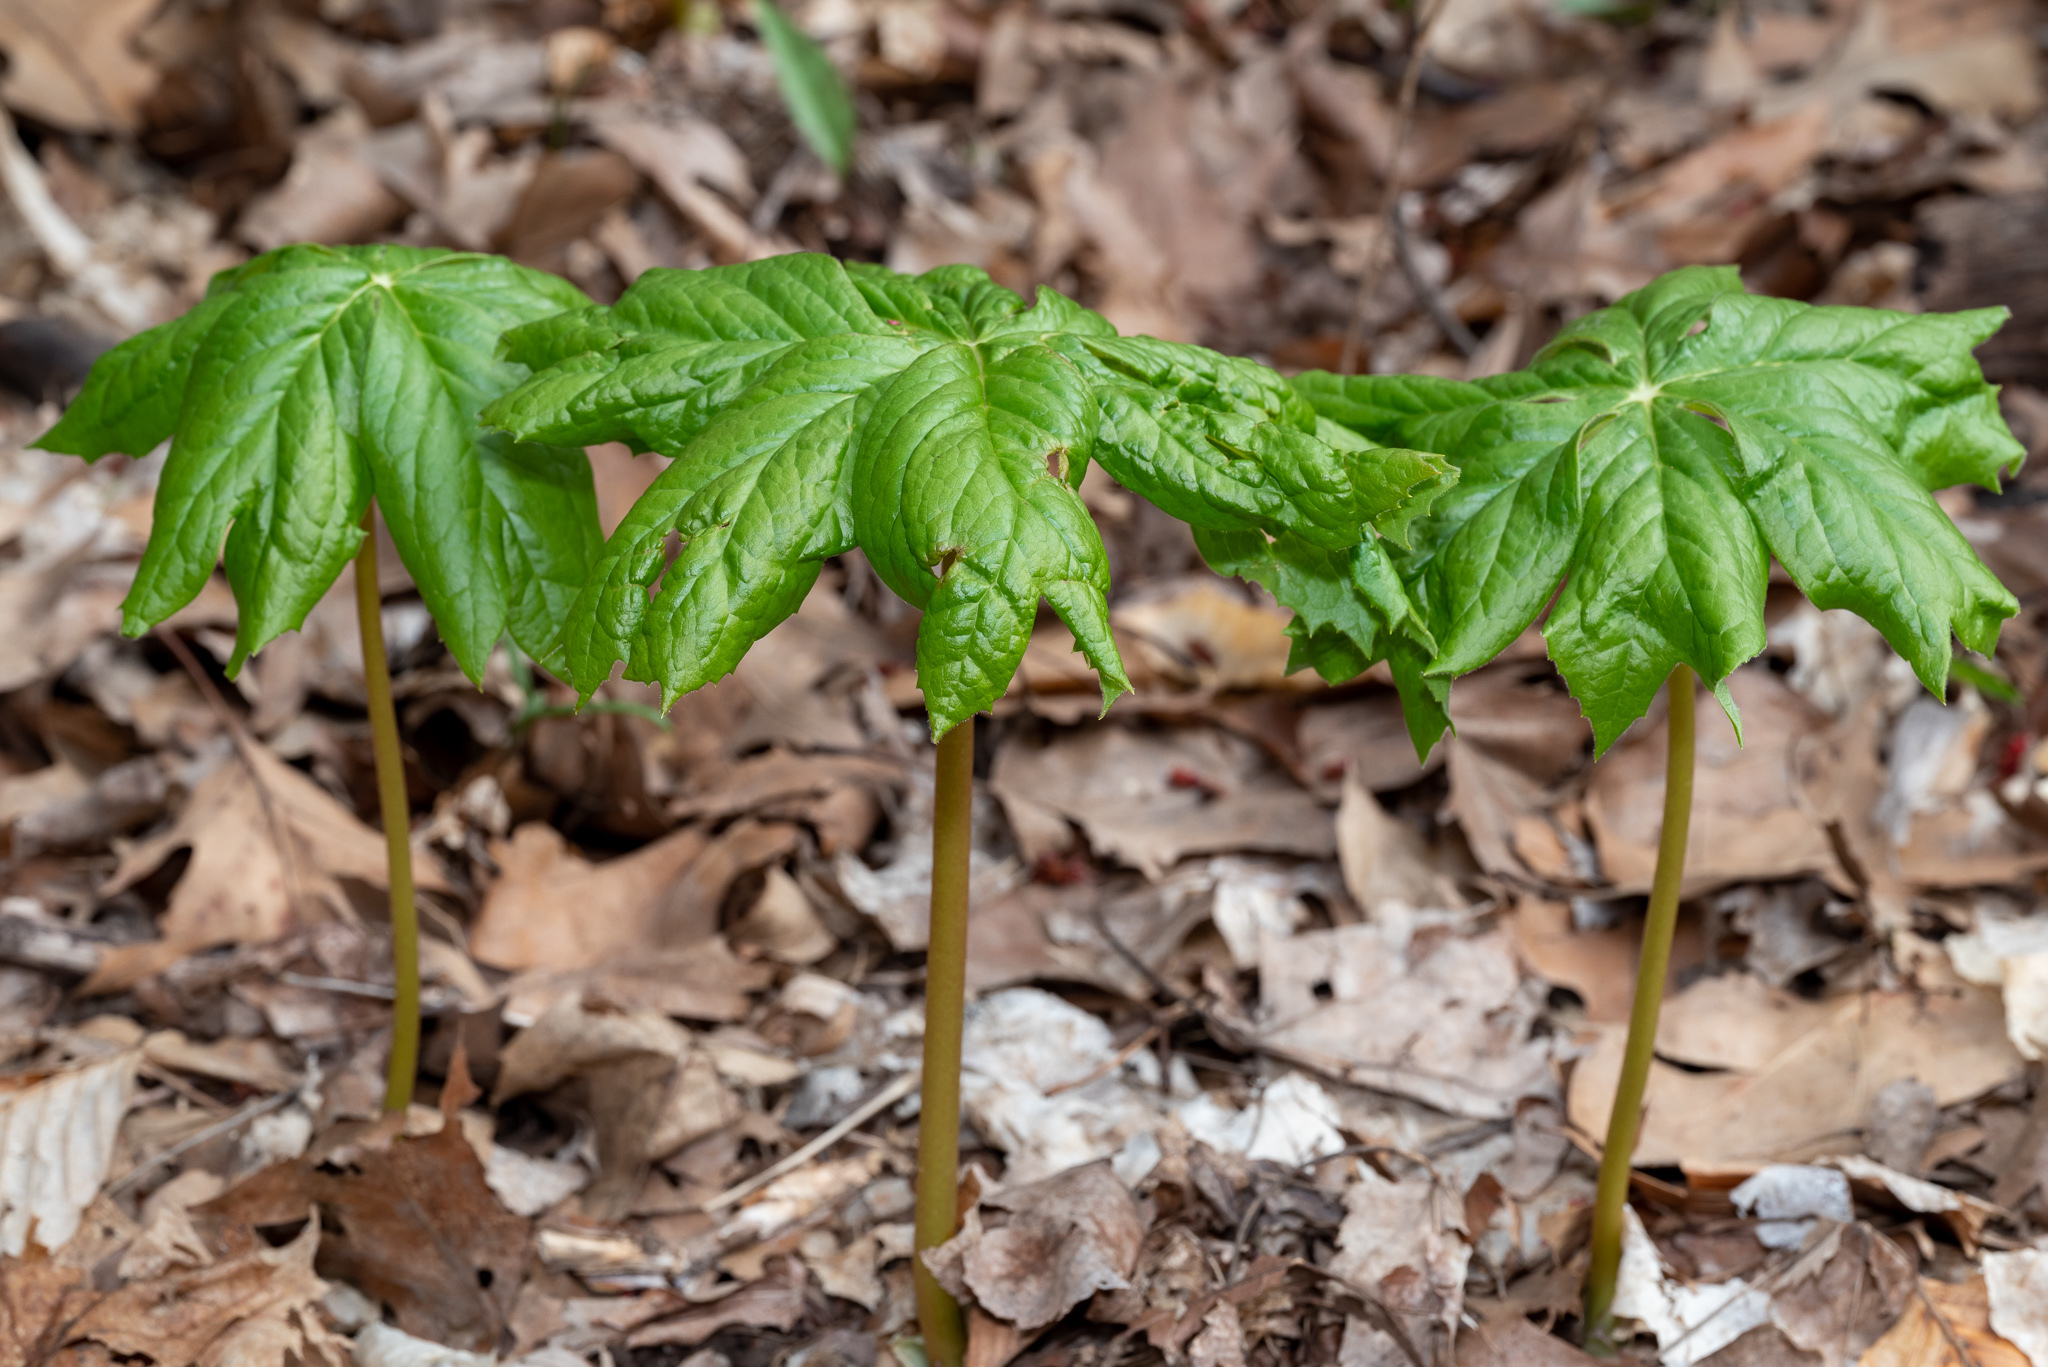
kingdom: Plantae
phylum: Tracheophyta
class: Magnoliopsida
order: Ranunculales
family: Berberidaceae
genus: Podophyllum
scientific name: Podophyllum peltatum
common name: Wild mandrake
